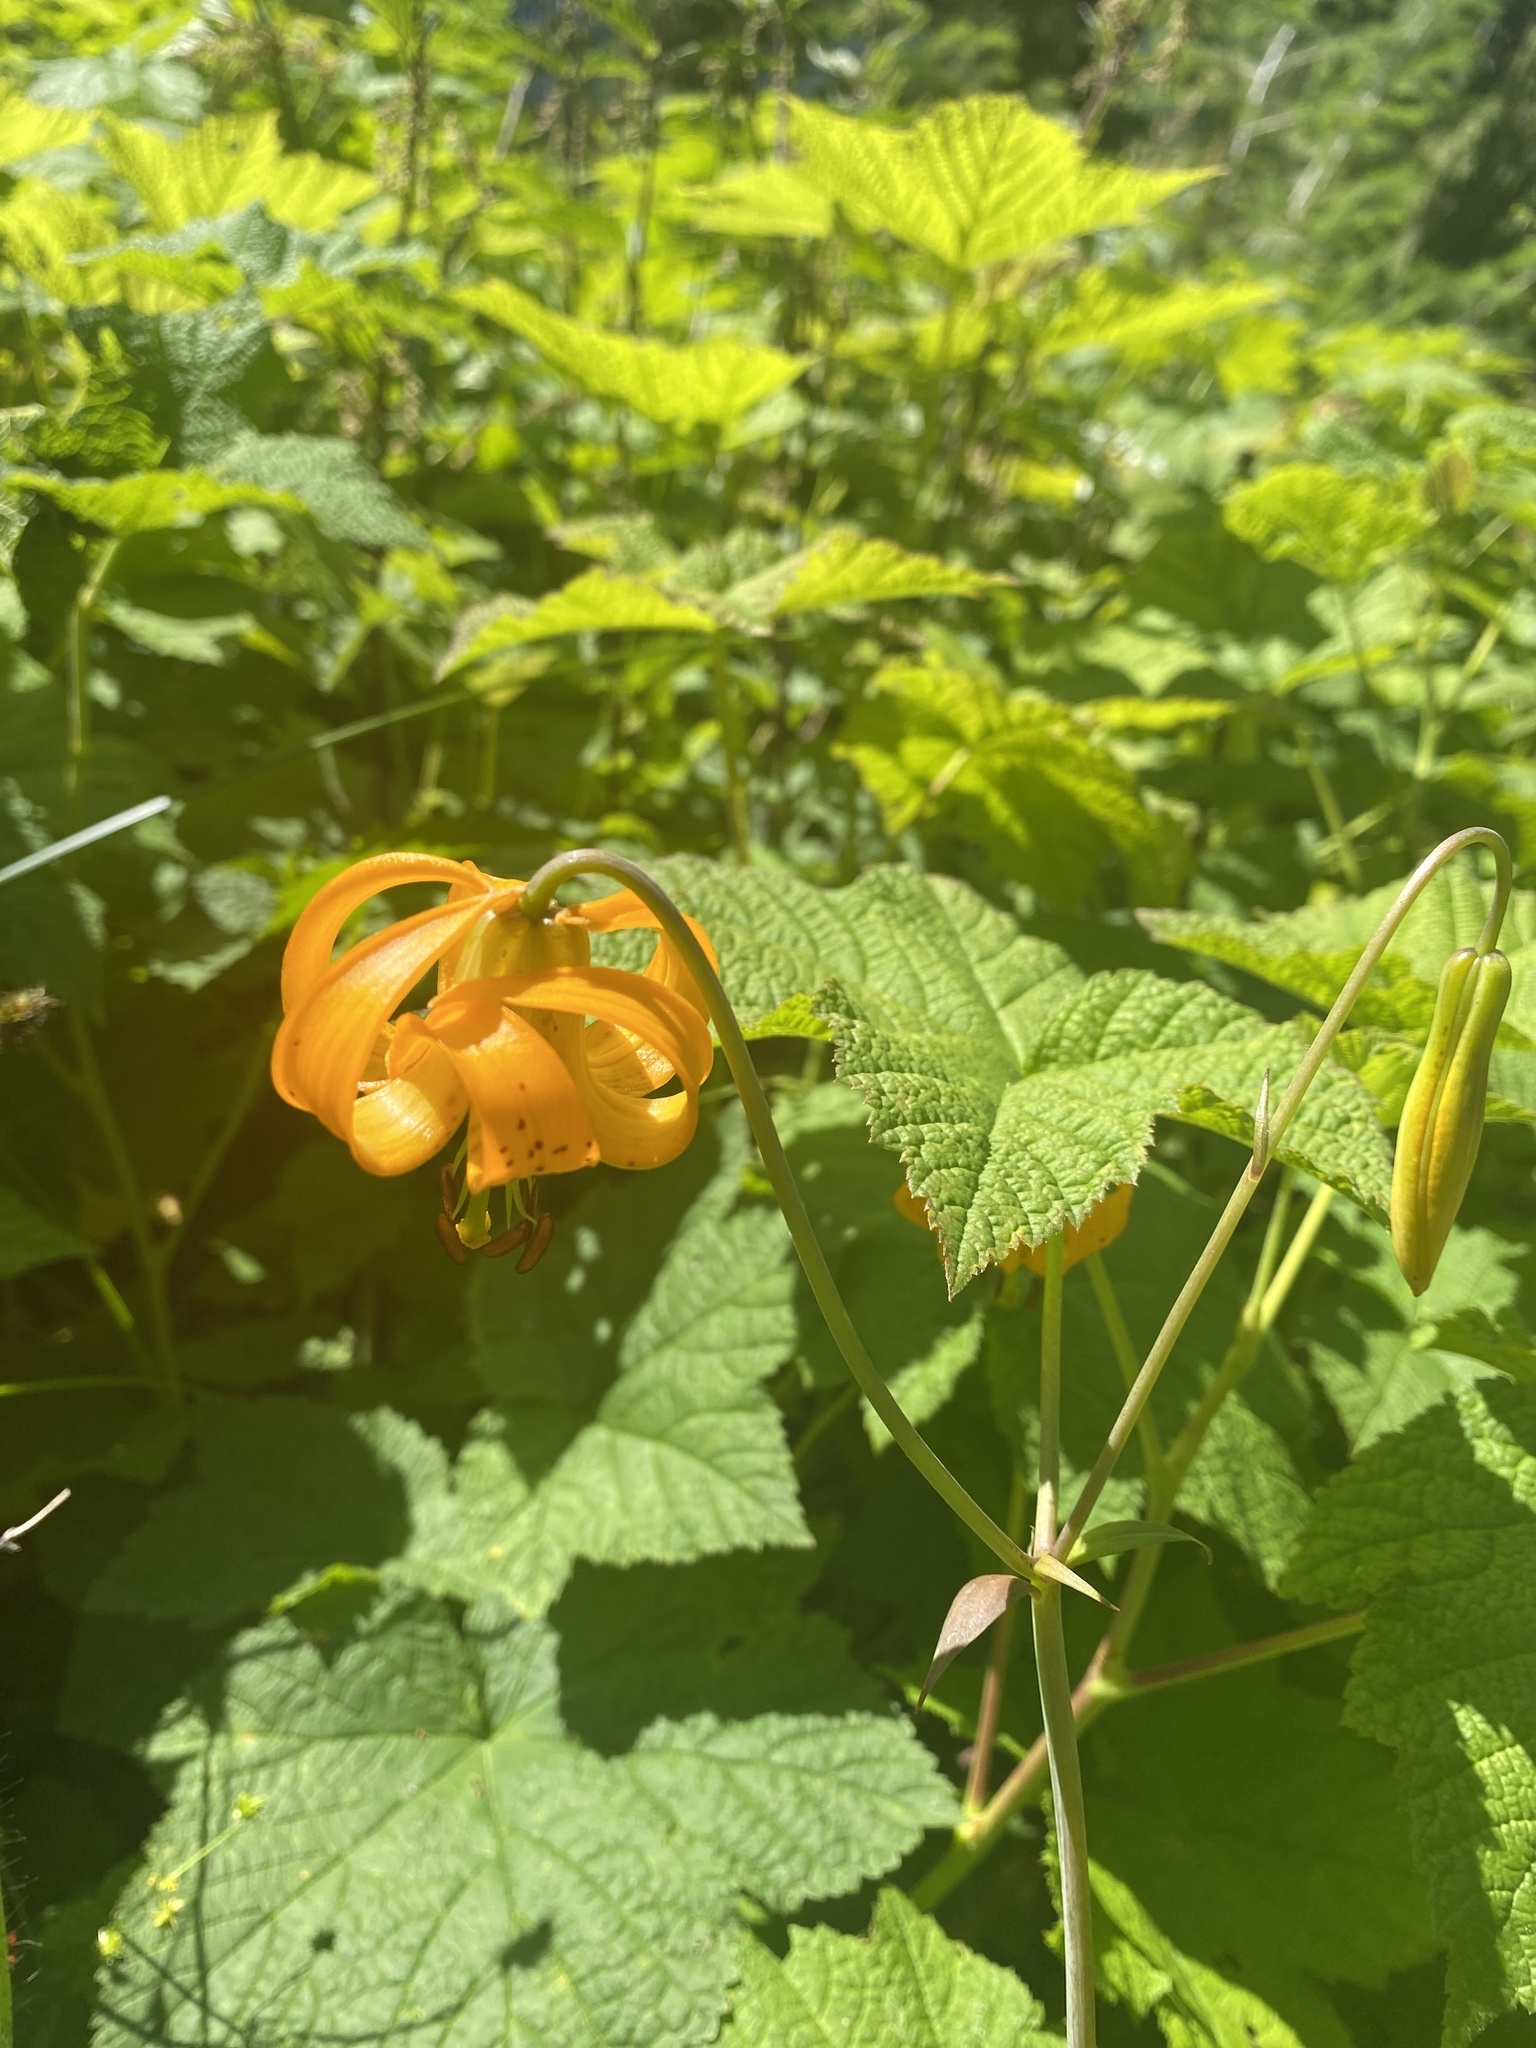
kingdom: Plantae
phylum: Tracheophyta
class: Liliopsida
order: Liliales
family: Liliaceae
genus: Lilium
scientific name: Lilium columbianum
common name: Columbia lily
